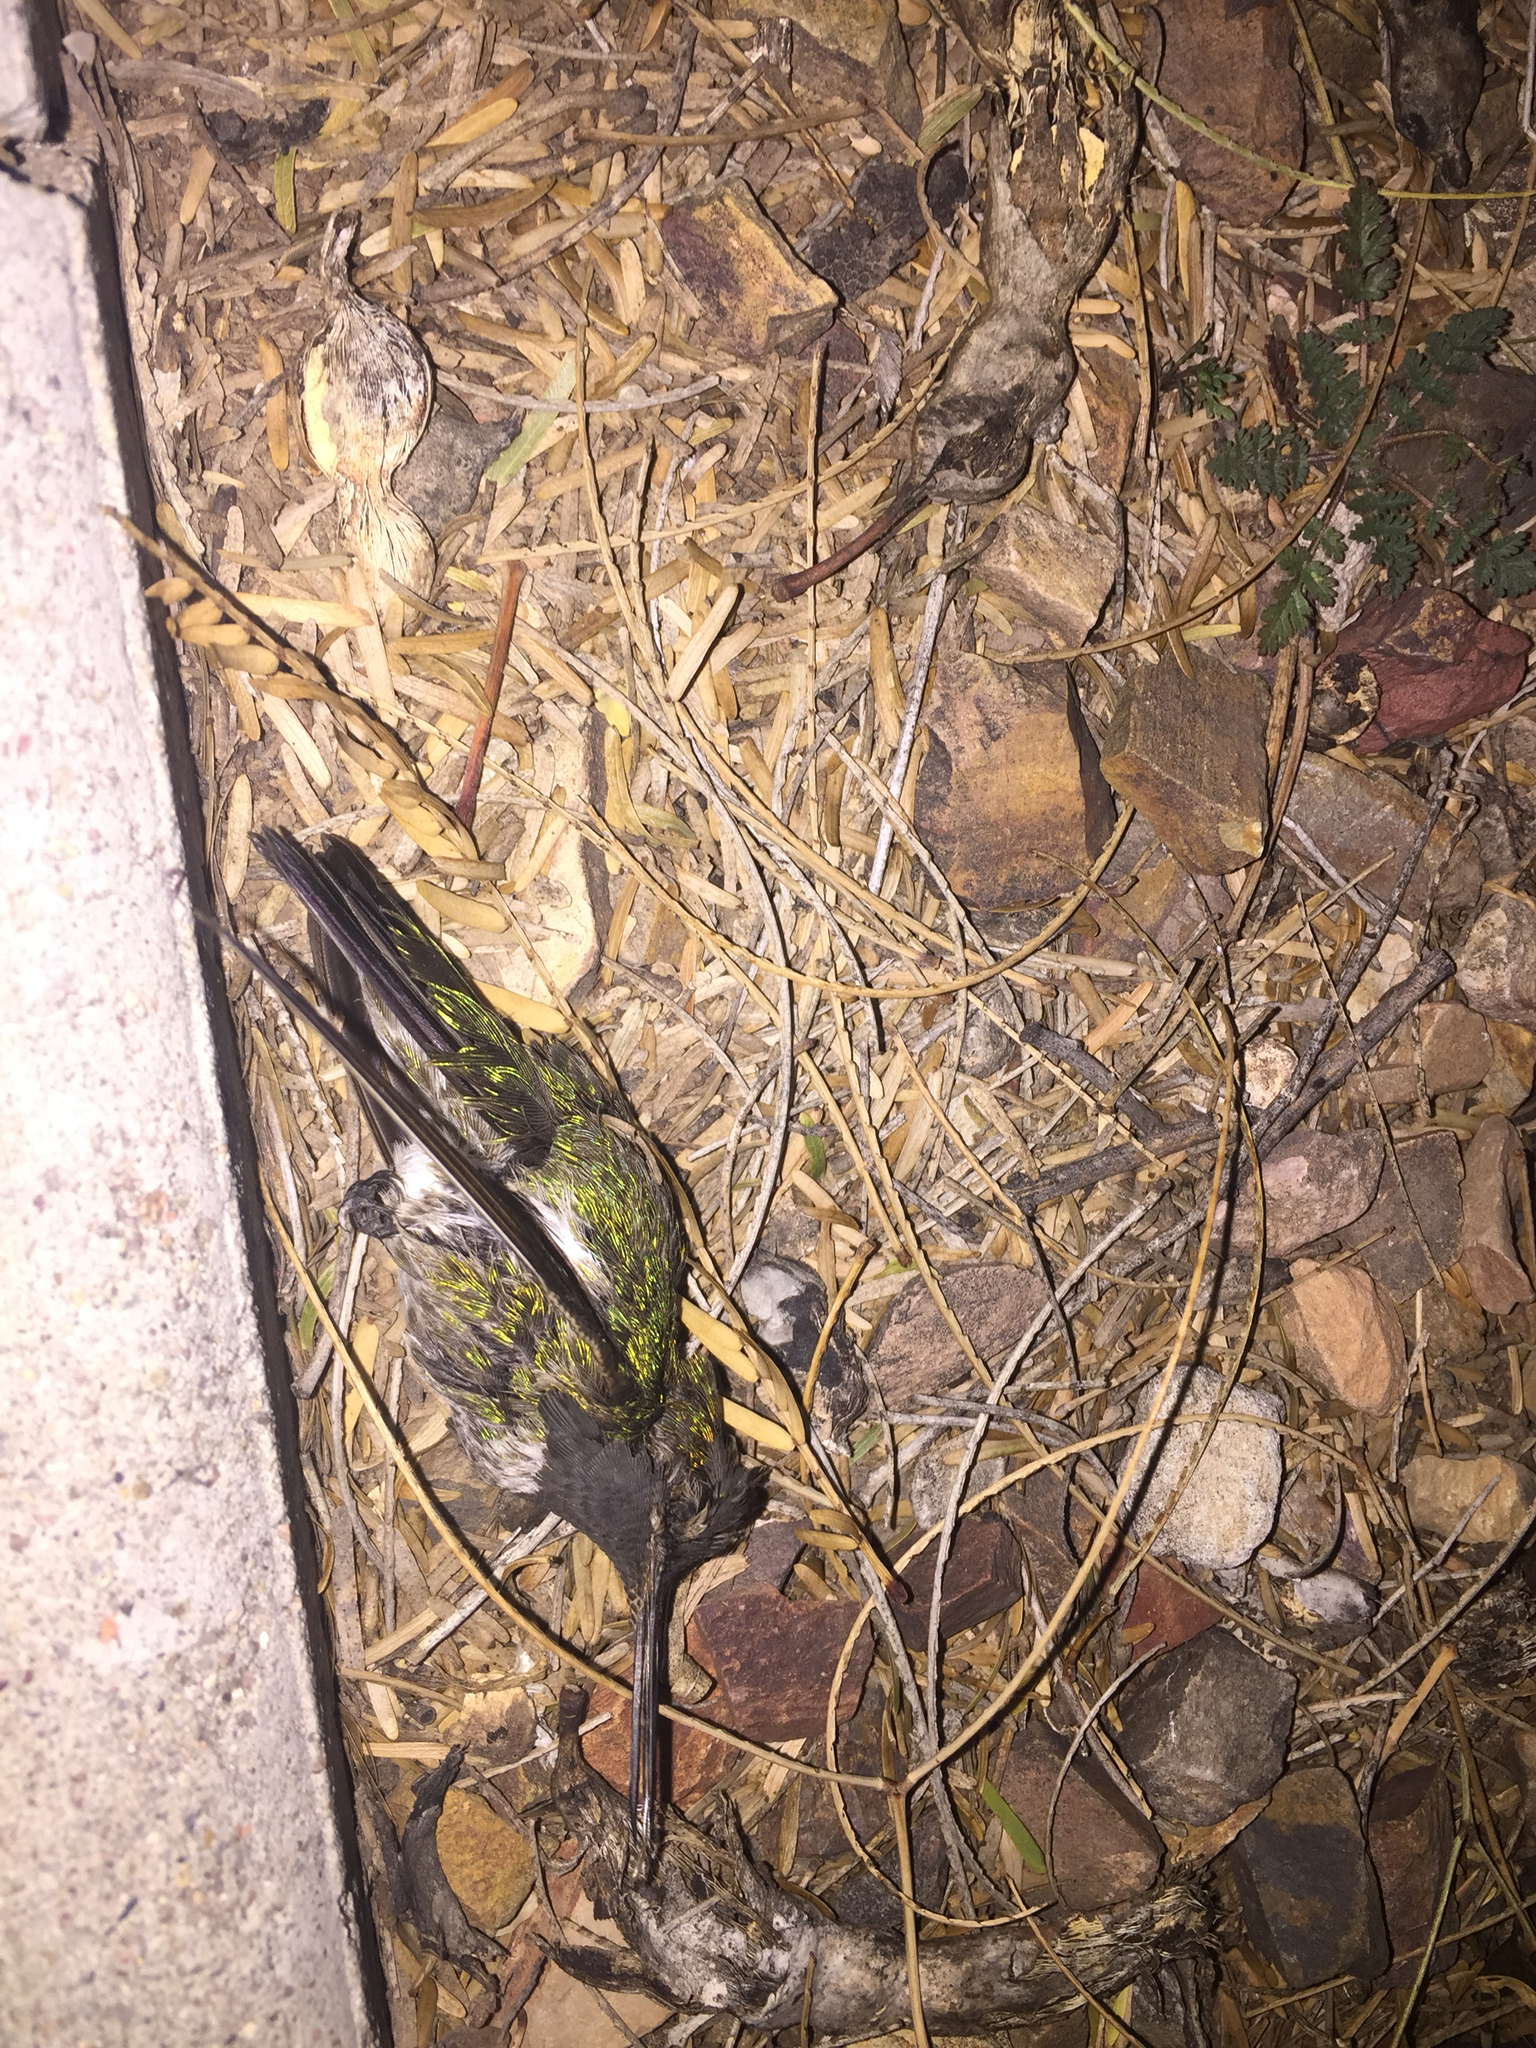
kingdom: Animalia
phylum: Chordata
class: Aves
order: Apodiformes
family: Trochilidae
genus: Calypte
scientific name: Calypte anna
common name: Anna's hummingbird
